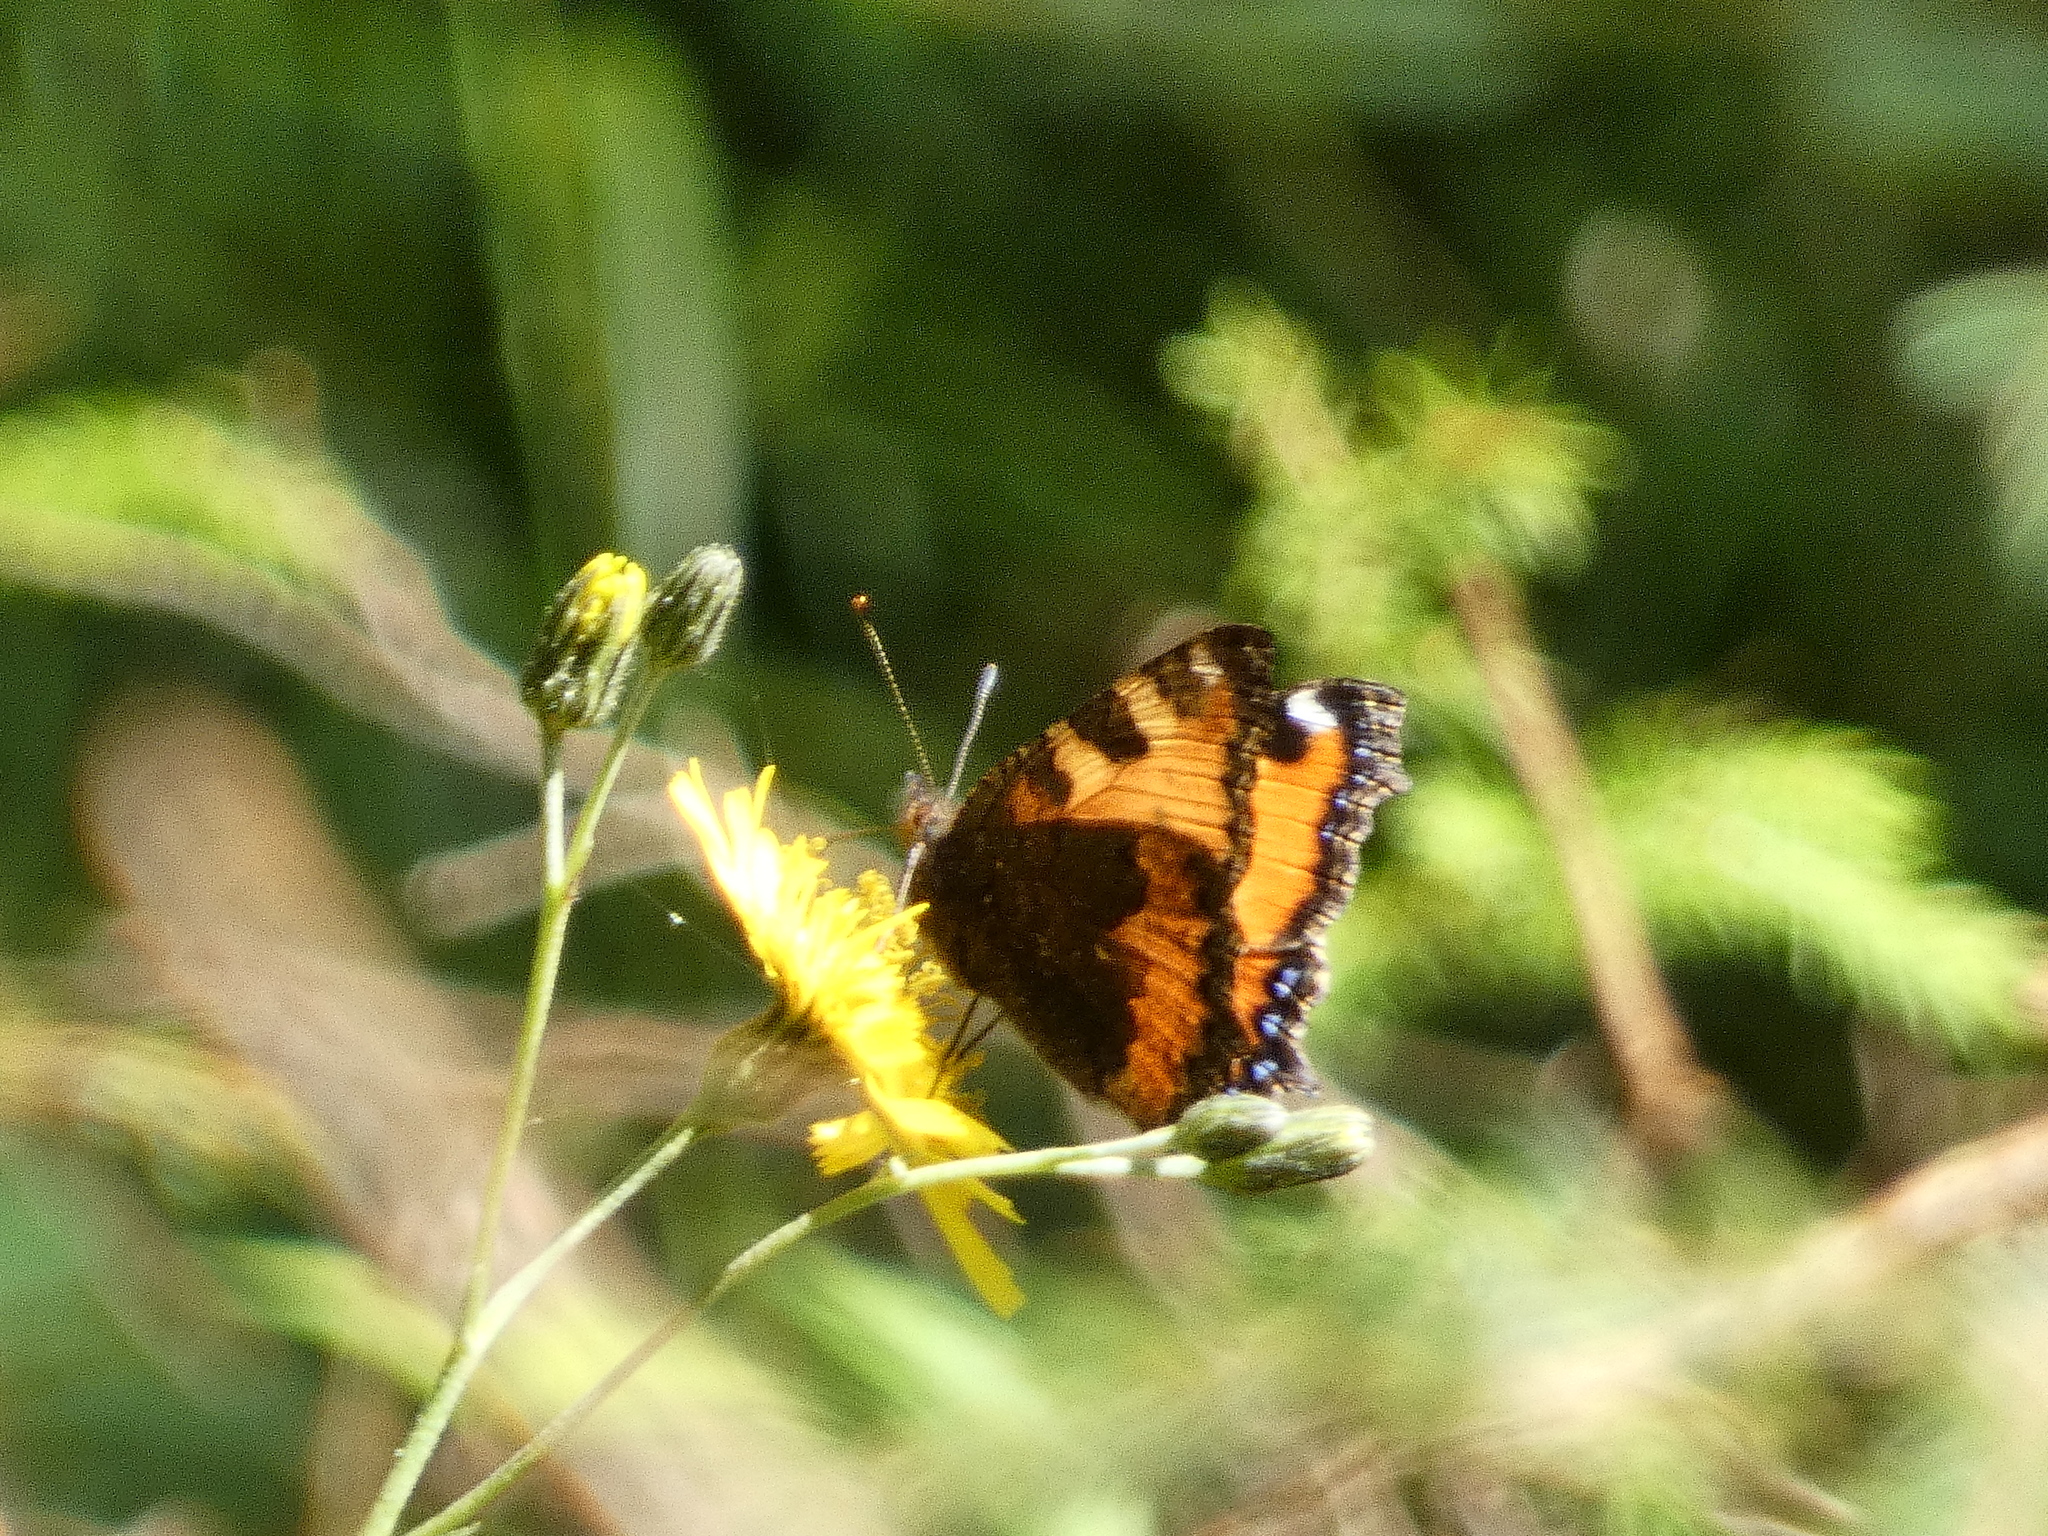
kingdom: Animalia
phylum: Arthropoda
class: Insecta
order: Lepidoptera
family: Nymphalidae
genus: Aglais
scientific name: Aglais urticae
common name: Small tortoiseshell
